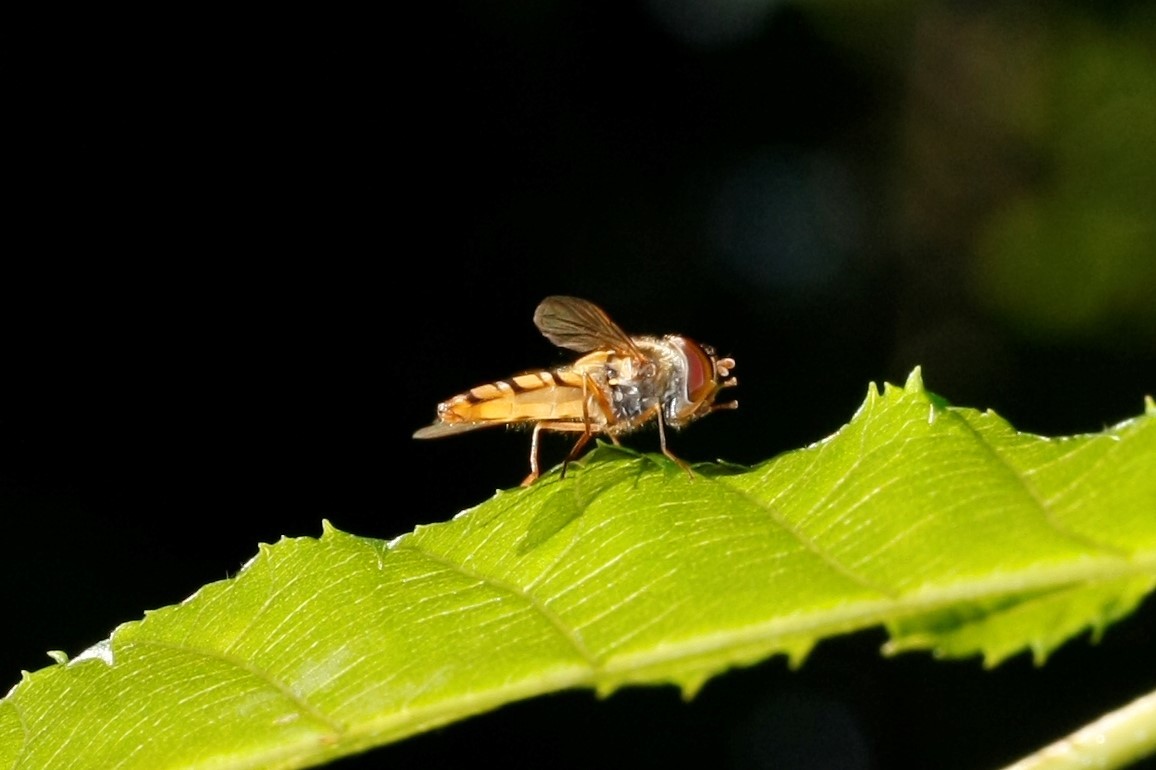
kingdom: Animalia
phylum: Arthropoda
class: Insecta
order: Diptera
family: Syrphidae
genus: Episyrphus
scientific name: Episyrphus balteatus
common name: Marmalade hoverfly
